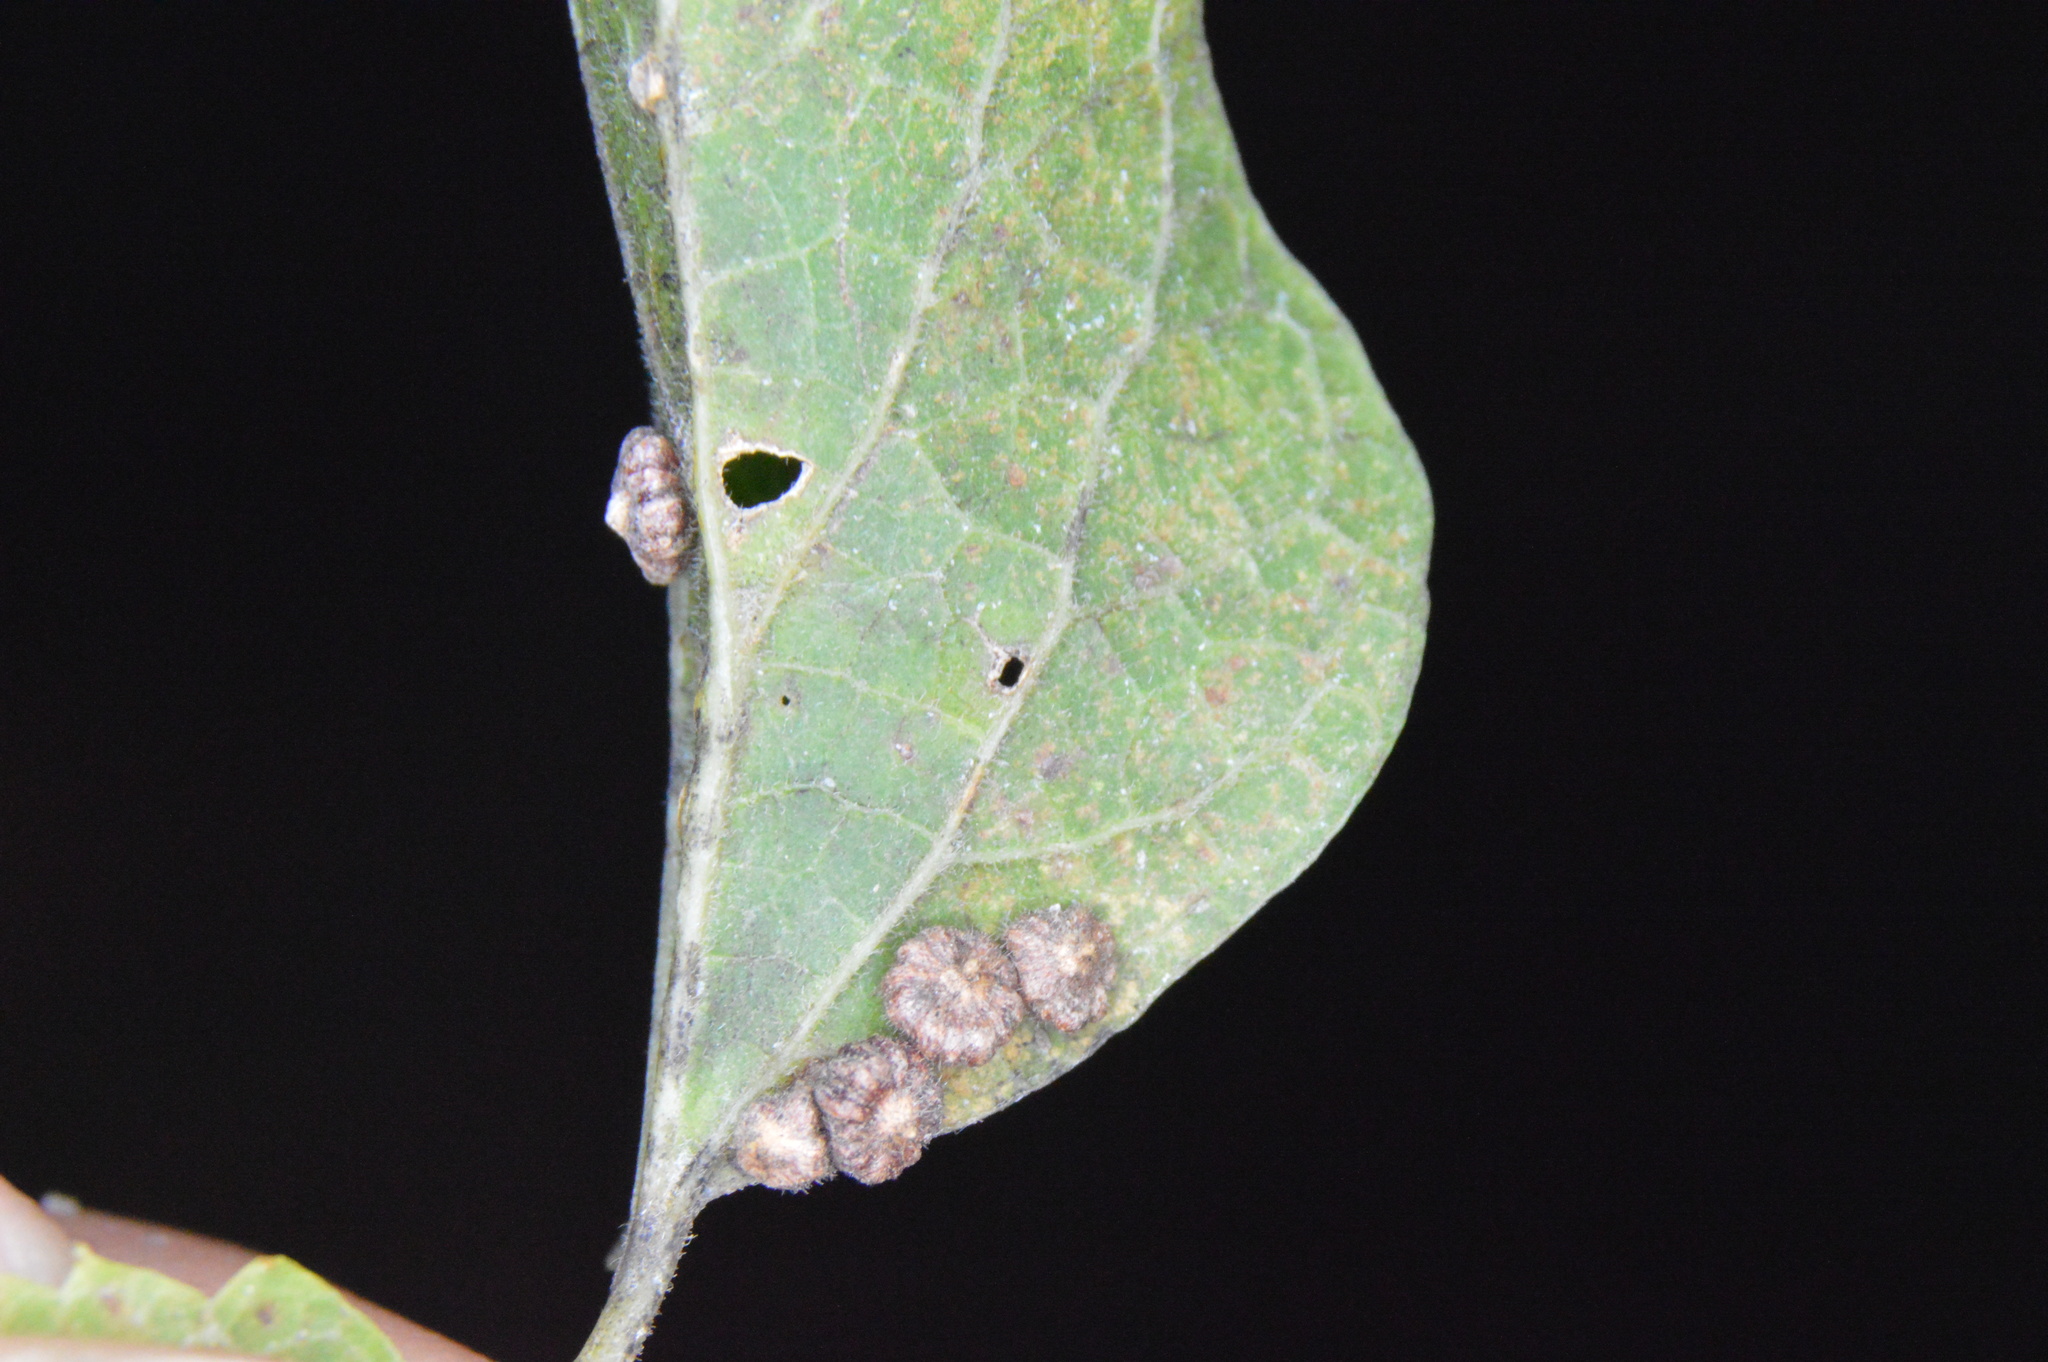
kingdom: Animalia
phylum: Arthropoda
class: Insecta
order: Diptera
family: Cecidomyiidae
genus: Celticecis
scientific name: Celticecis capsularis
